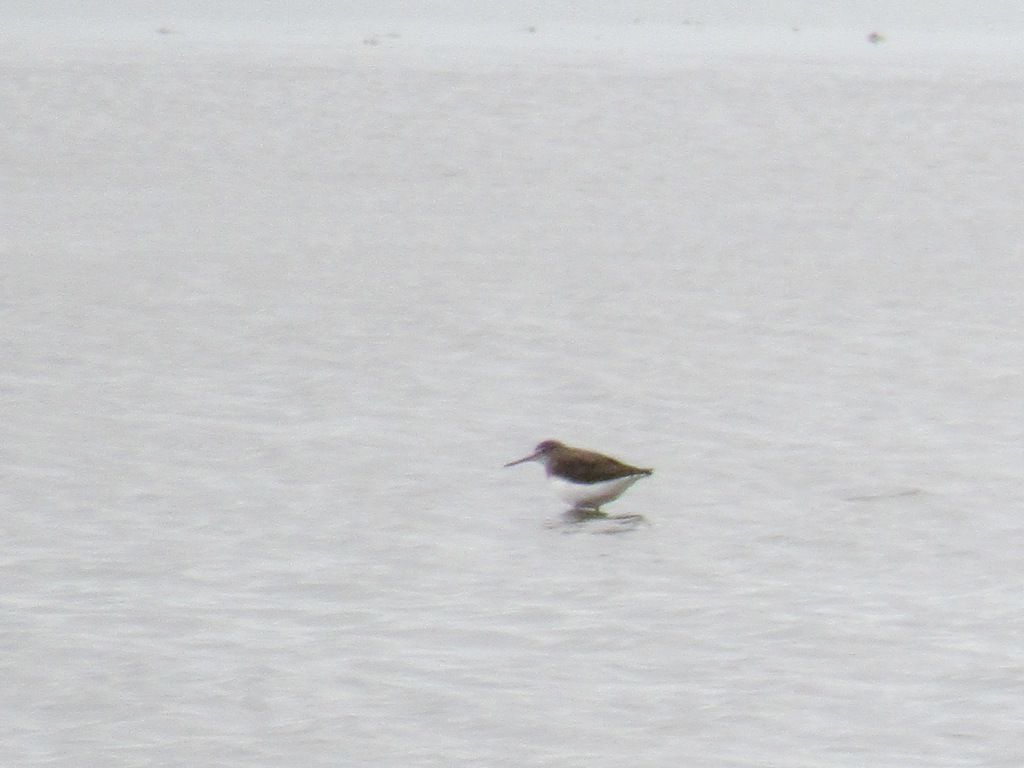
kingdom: Animalia
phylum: Chordata
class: Aves
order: Charadriiformes
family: Scolopacidae
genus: Tringa
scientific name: Tringa ochropus
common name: Green sandpiper
